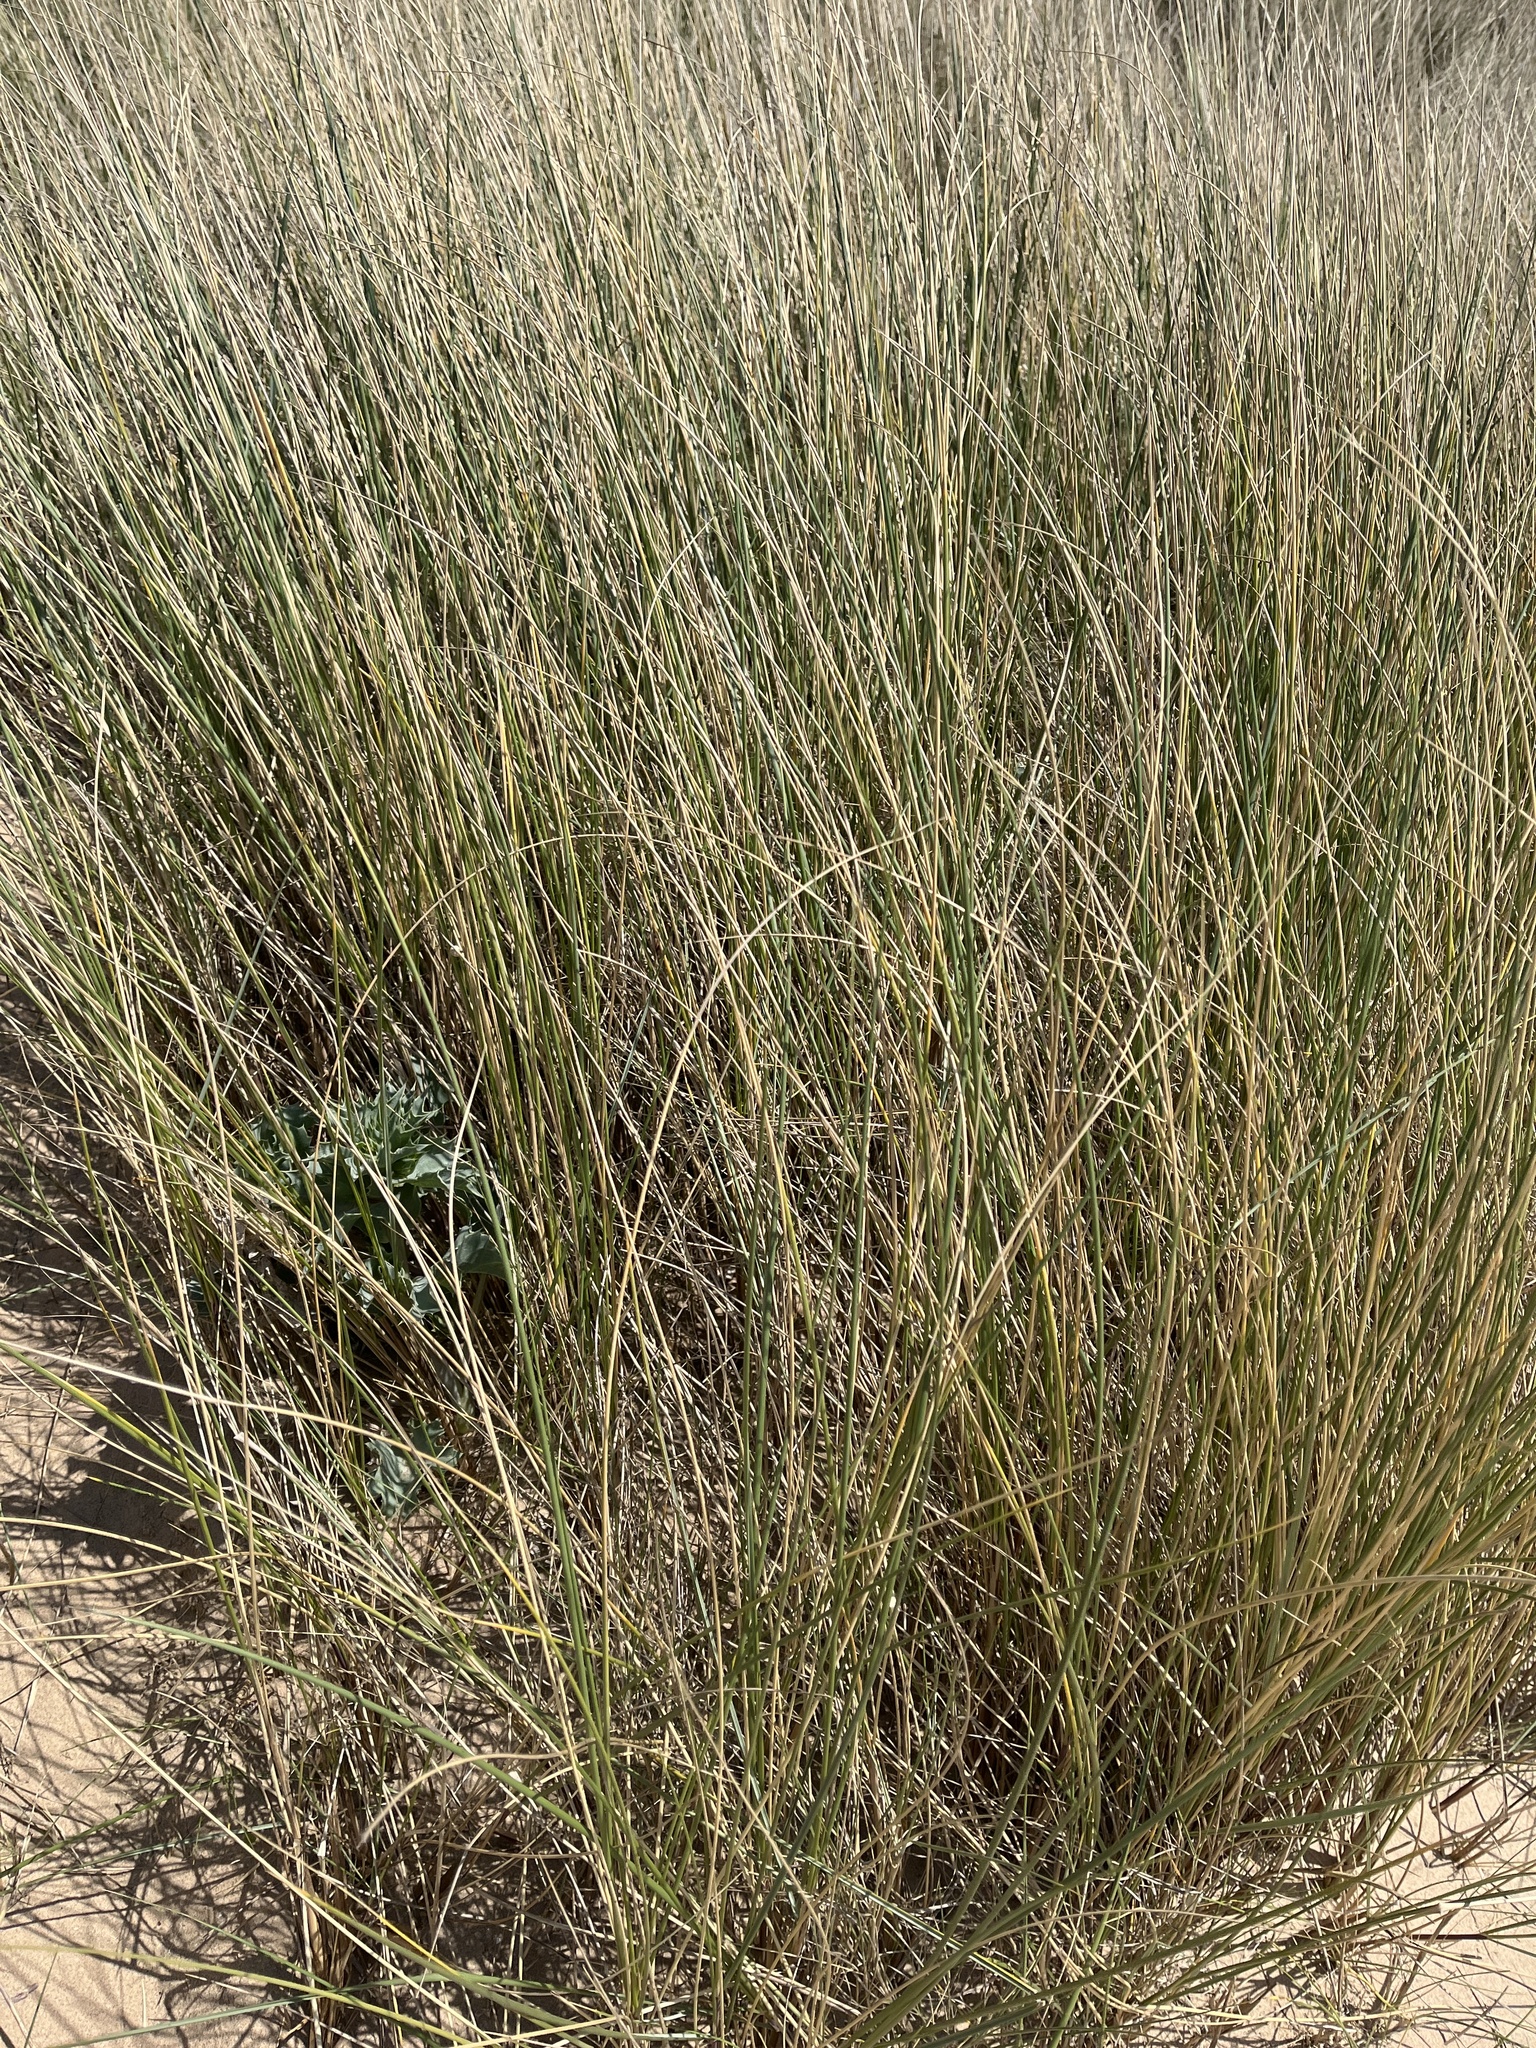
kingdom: Plantae
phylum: Tracheophyta
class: Liliopsida
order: Poales
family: Poaceae
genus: Calamagrostis
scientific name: Calamagrostis arenaria
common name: European beachgrass
